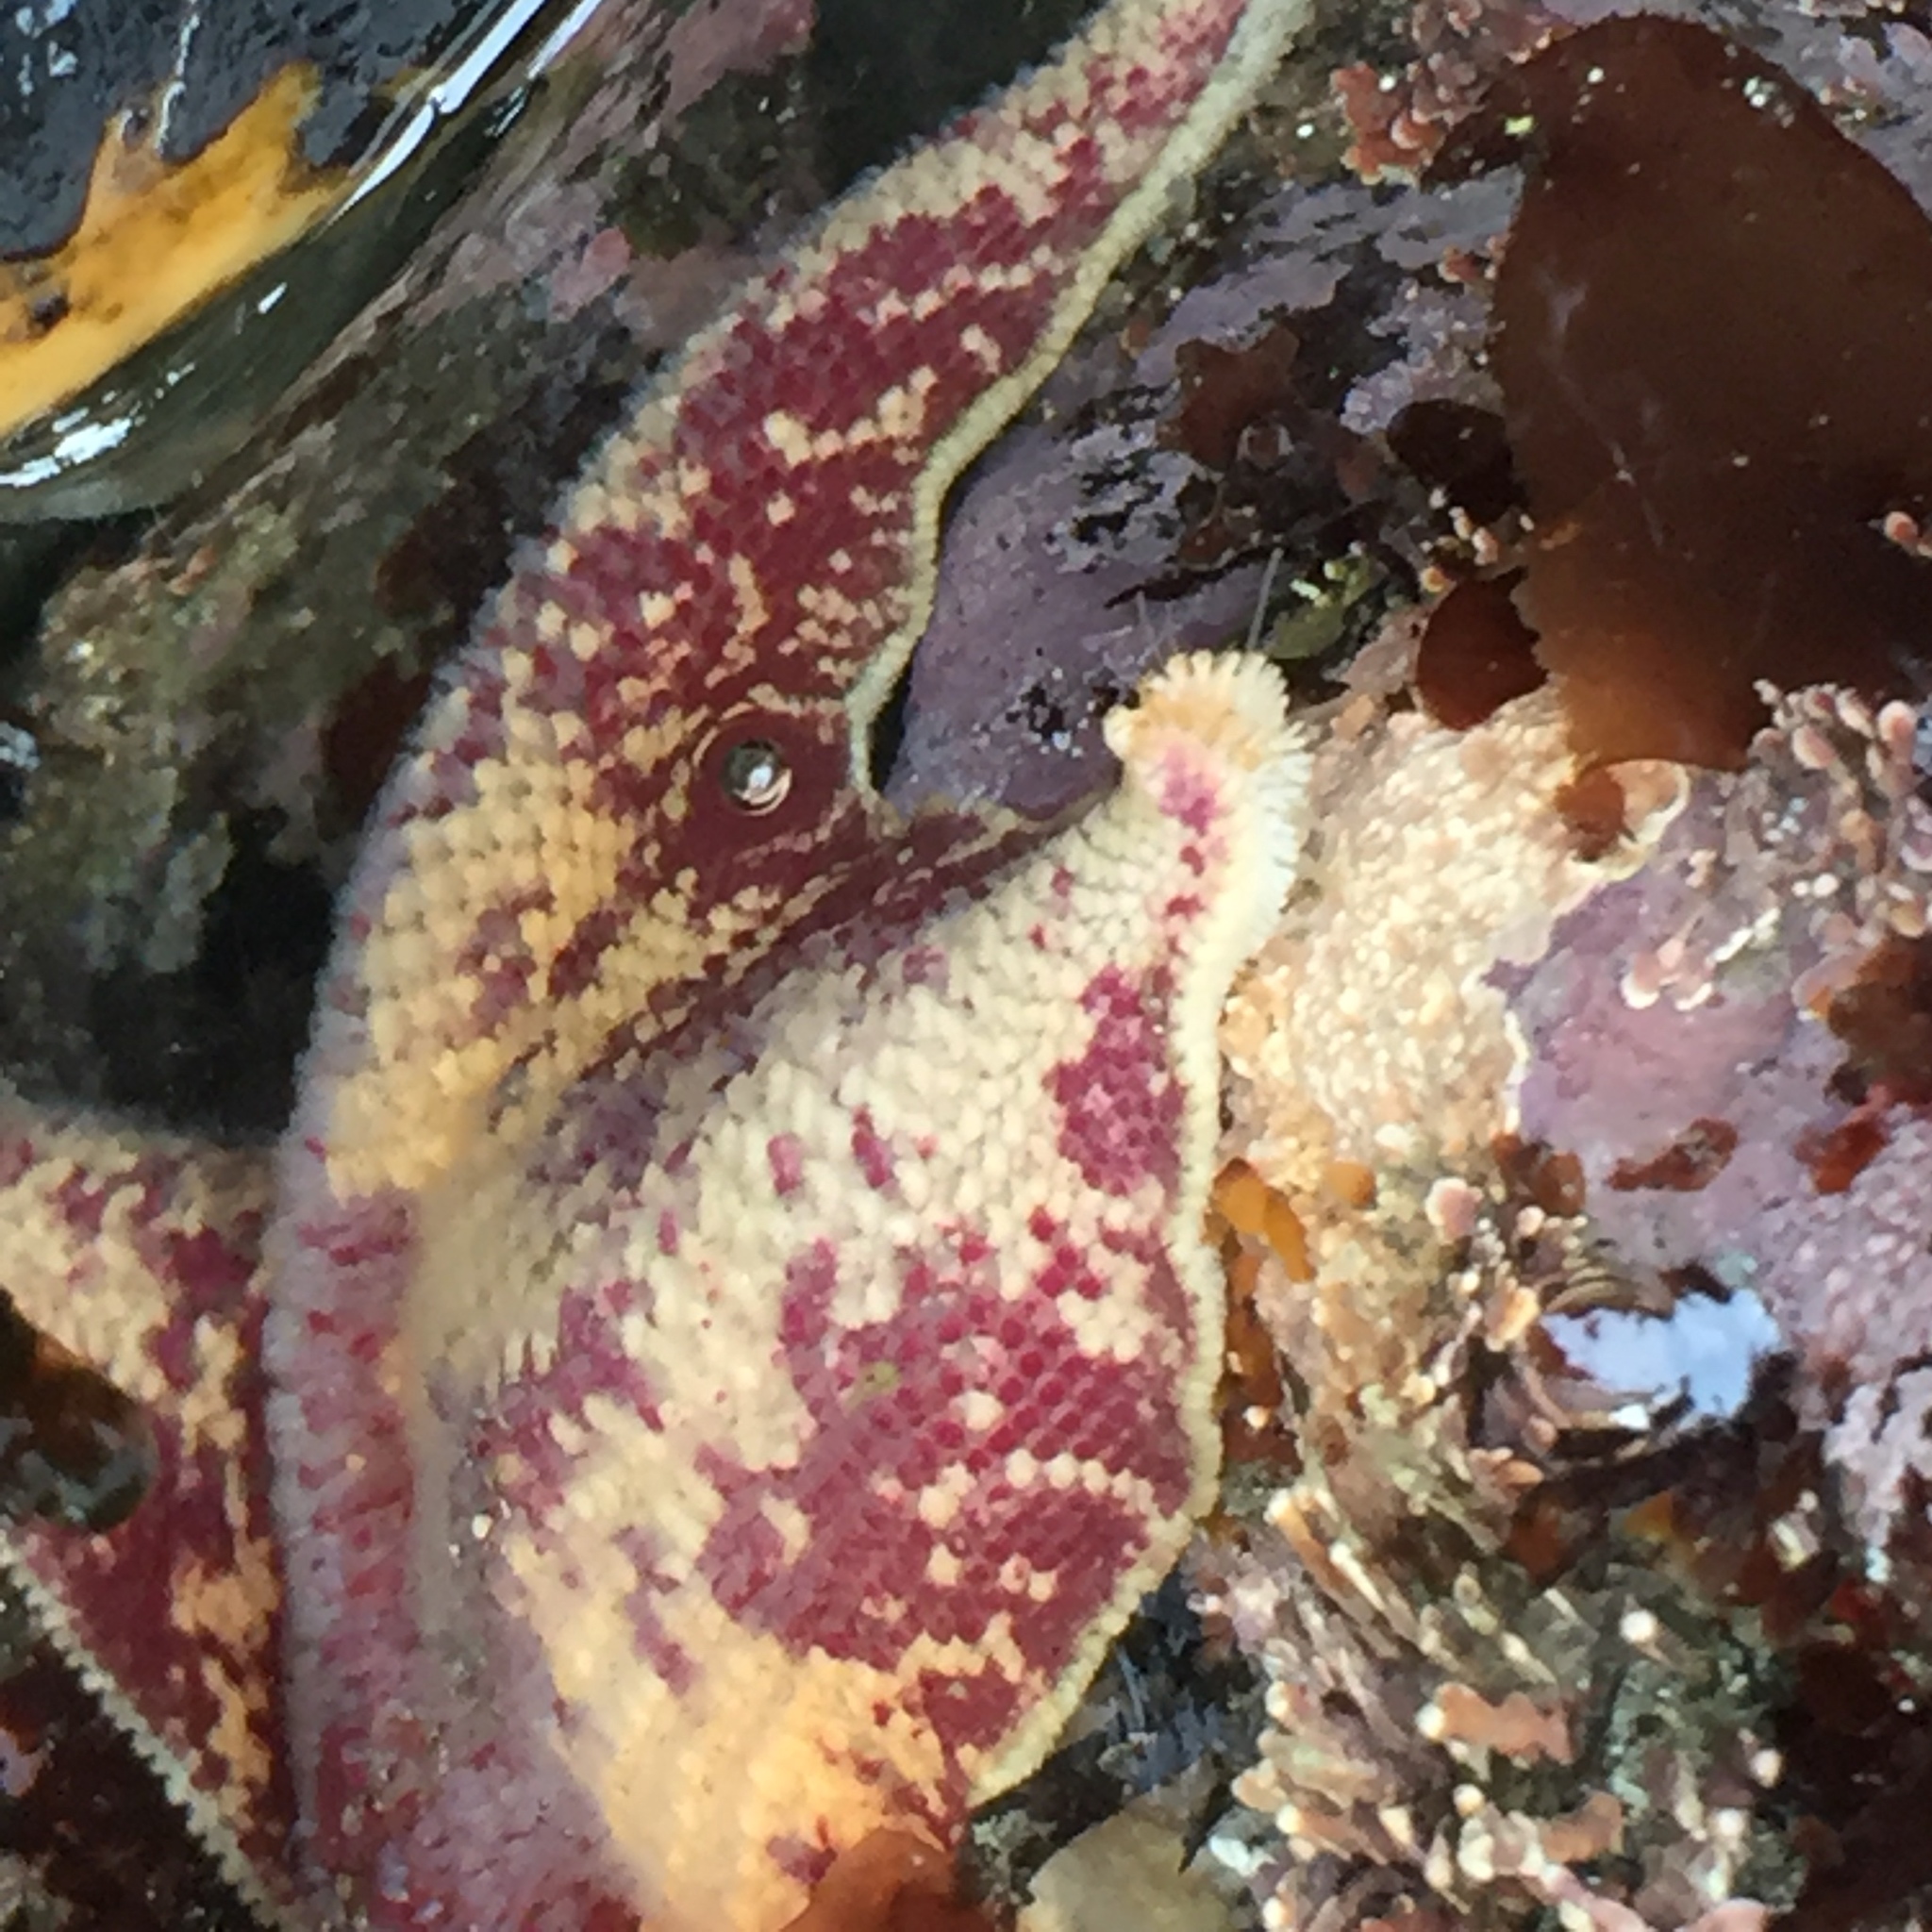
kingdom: Animalia
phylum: Echinodermata
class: Asteroidea
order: Valvatida
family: Asterinidae
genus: Patiria
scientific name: Patiria miniata
